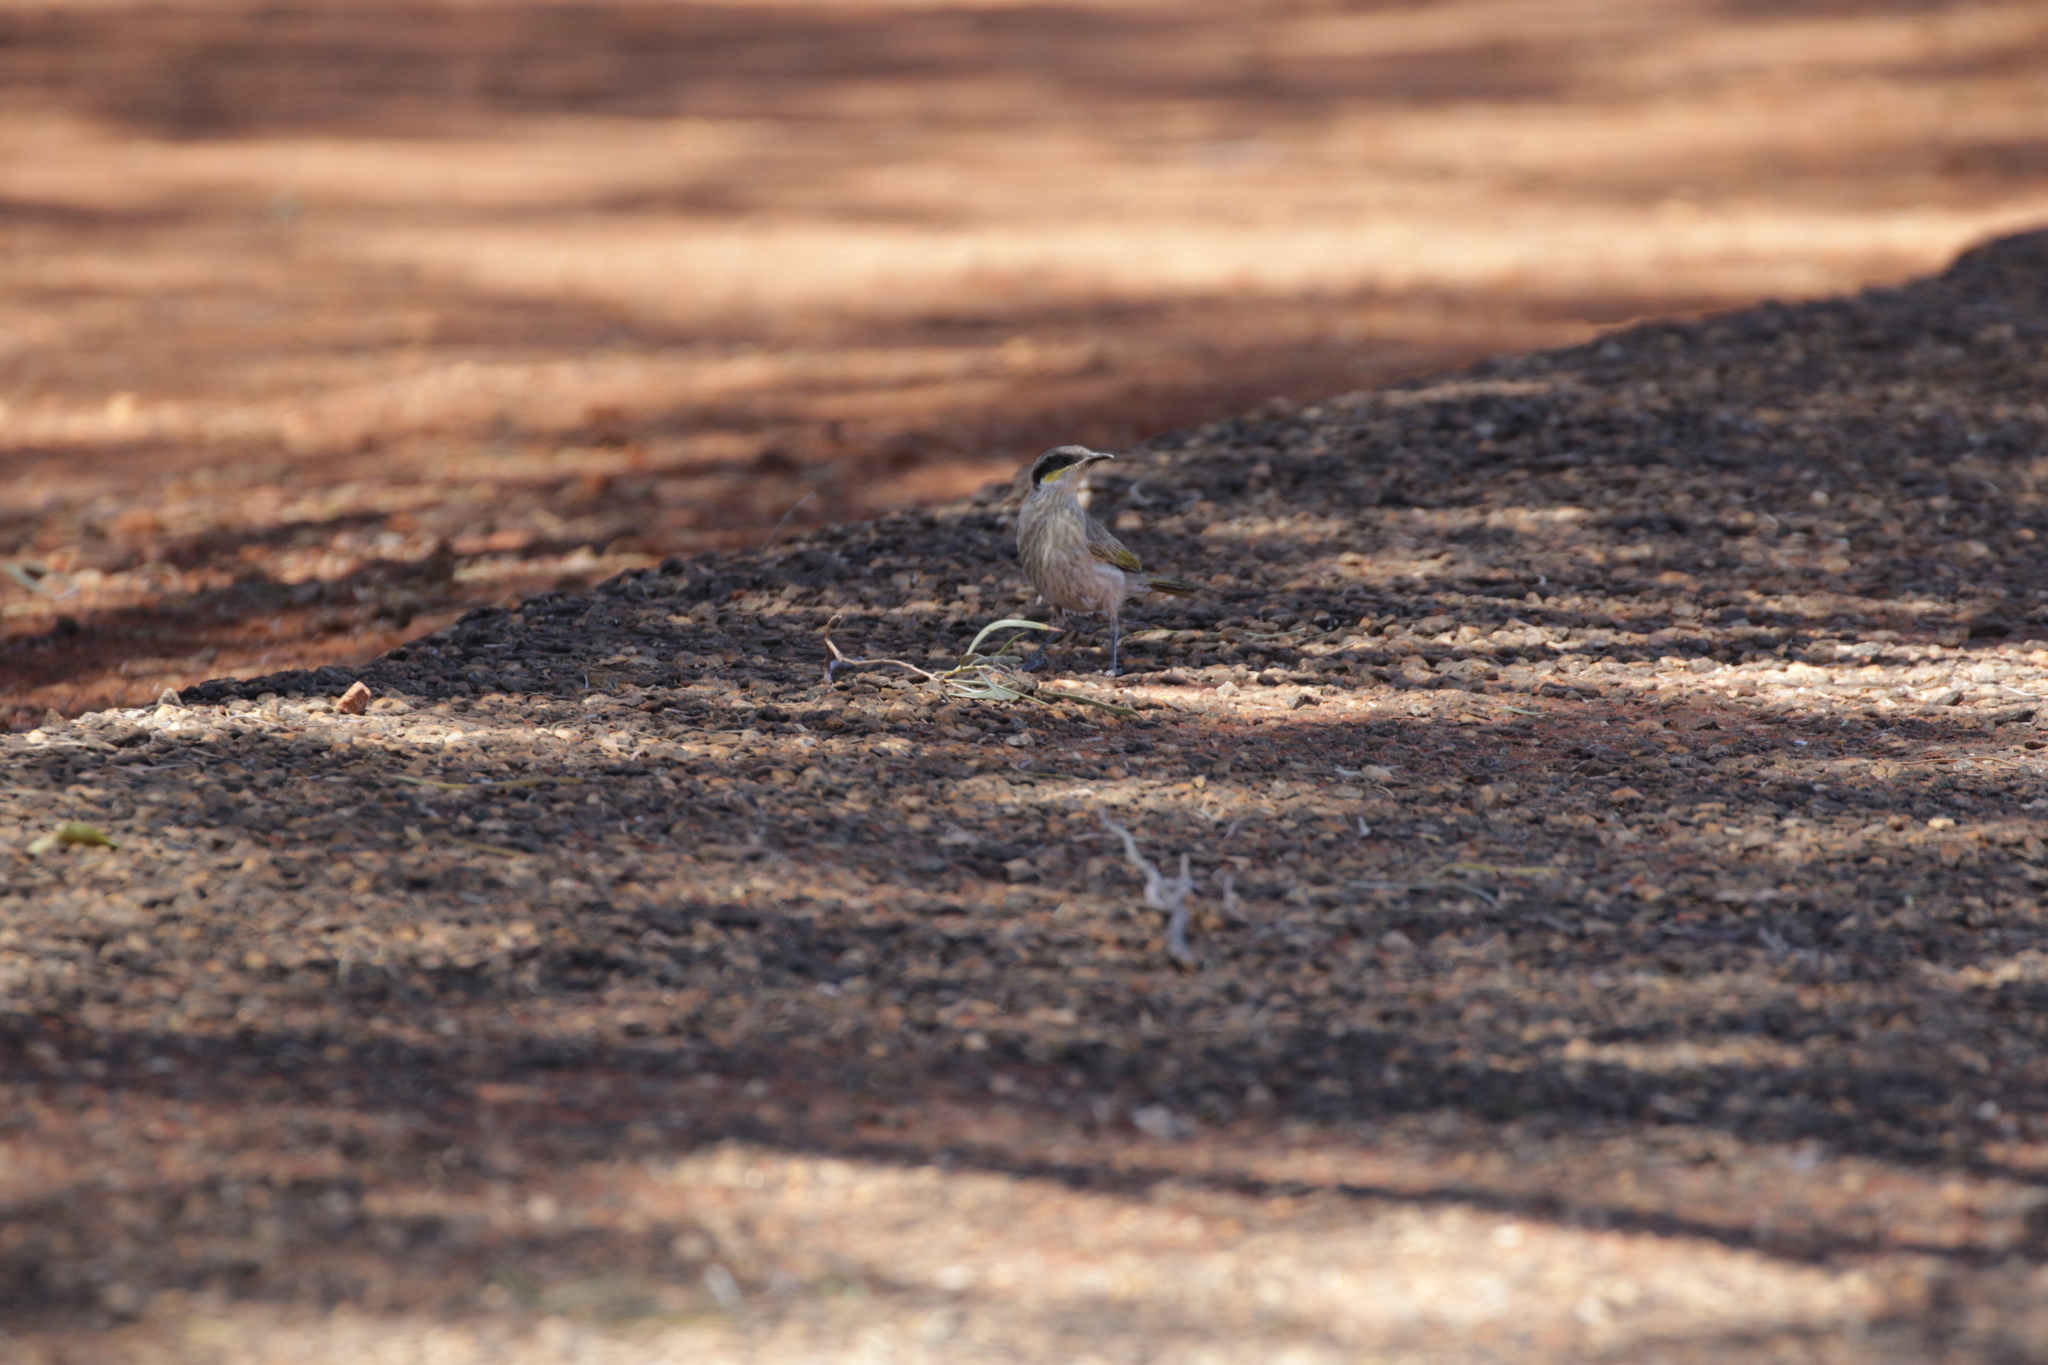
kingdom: Animalia
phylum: Chordata
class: Aves
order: Passeriformes
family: Meliphagidae
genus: Gavicalis
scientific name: Gavicalis virescens
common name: Singing honeyeater
